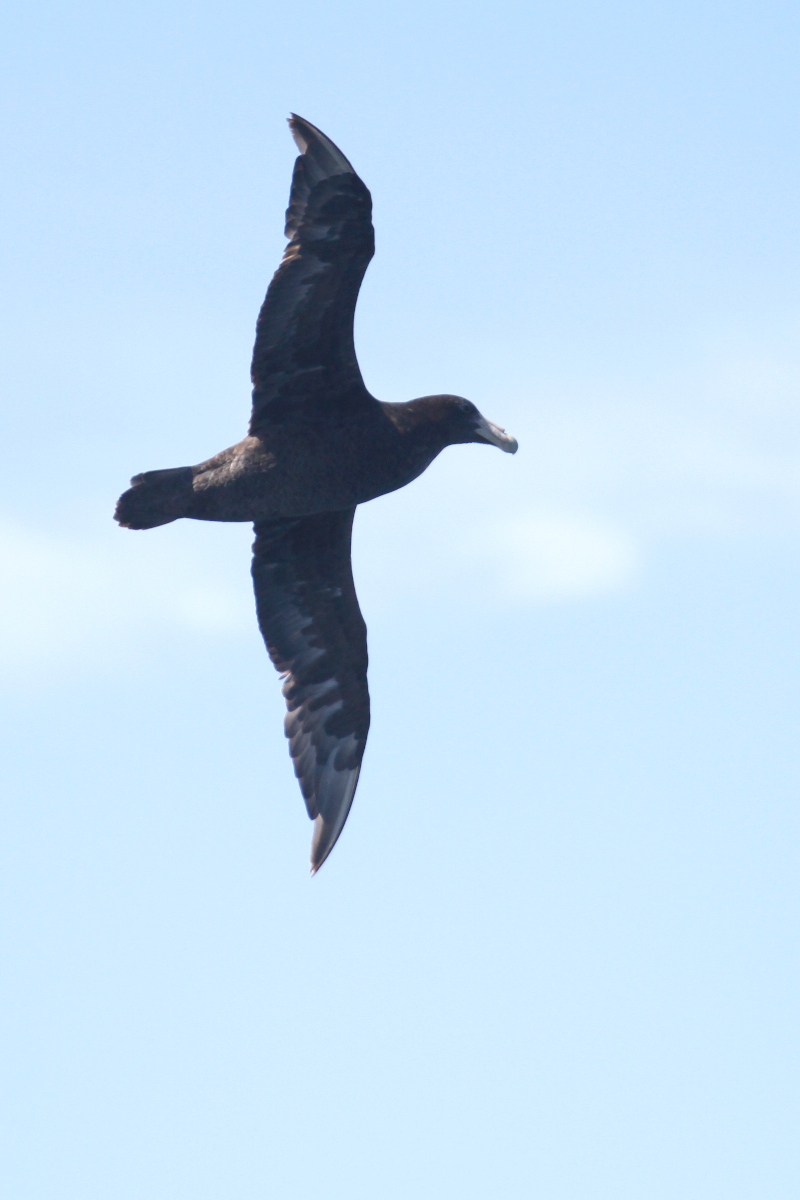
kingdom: Animalia
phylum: Chordata
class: Aves
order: Procellariiformes
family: Procellariidae
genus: Macronectes
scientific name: Macronectes giganteus
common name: Southern giant petrel
